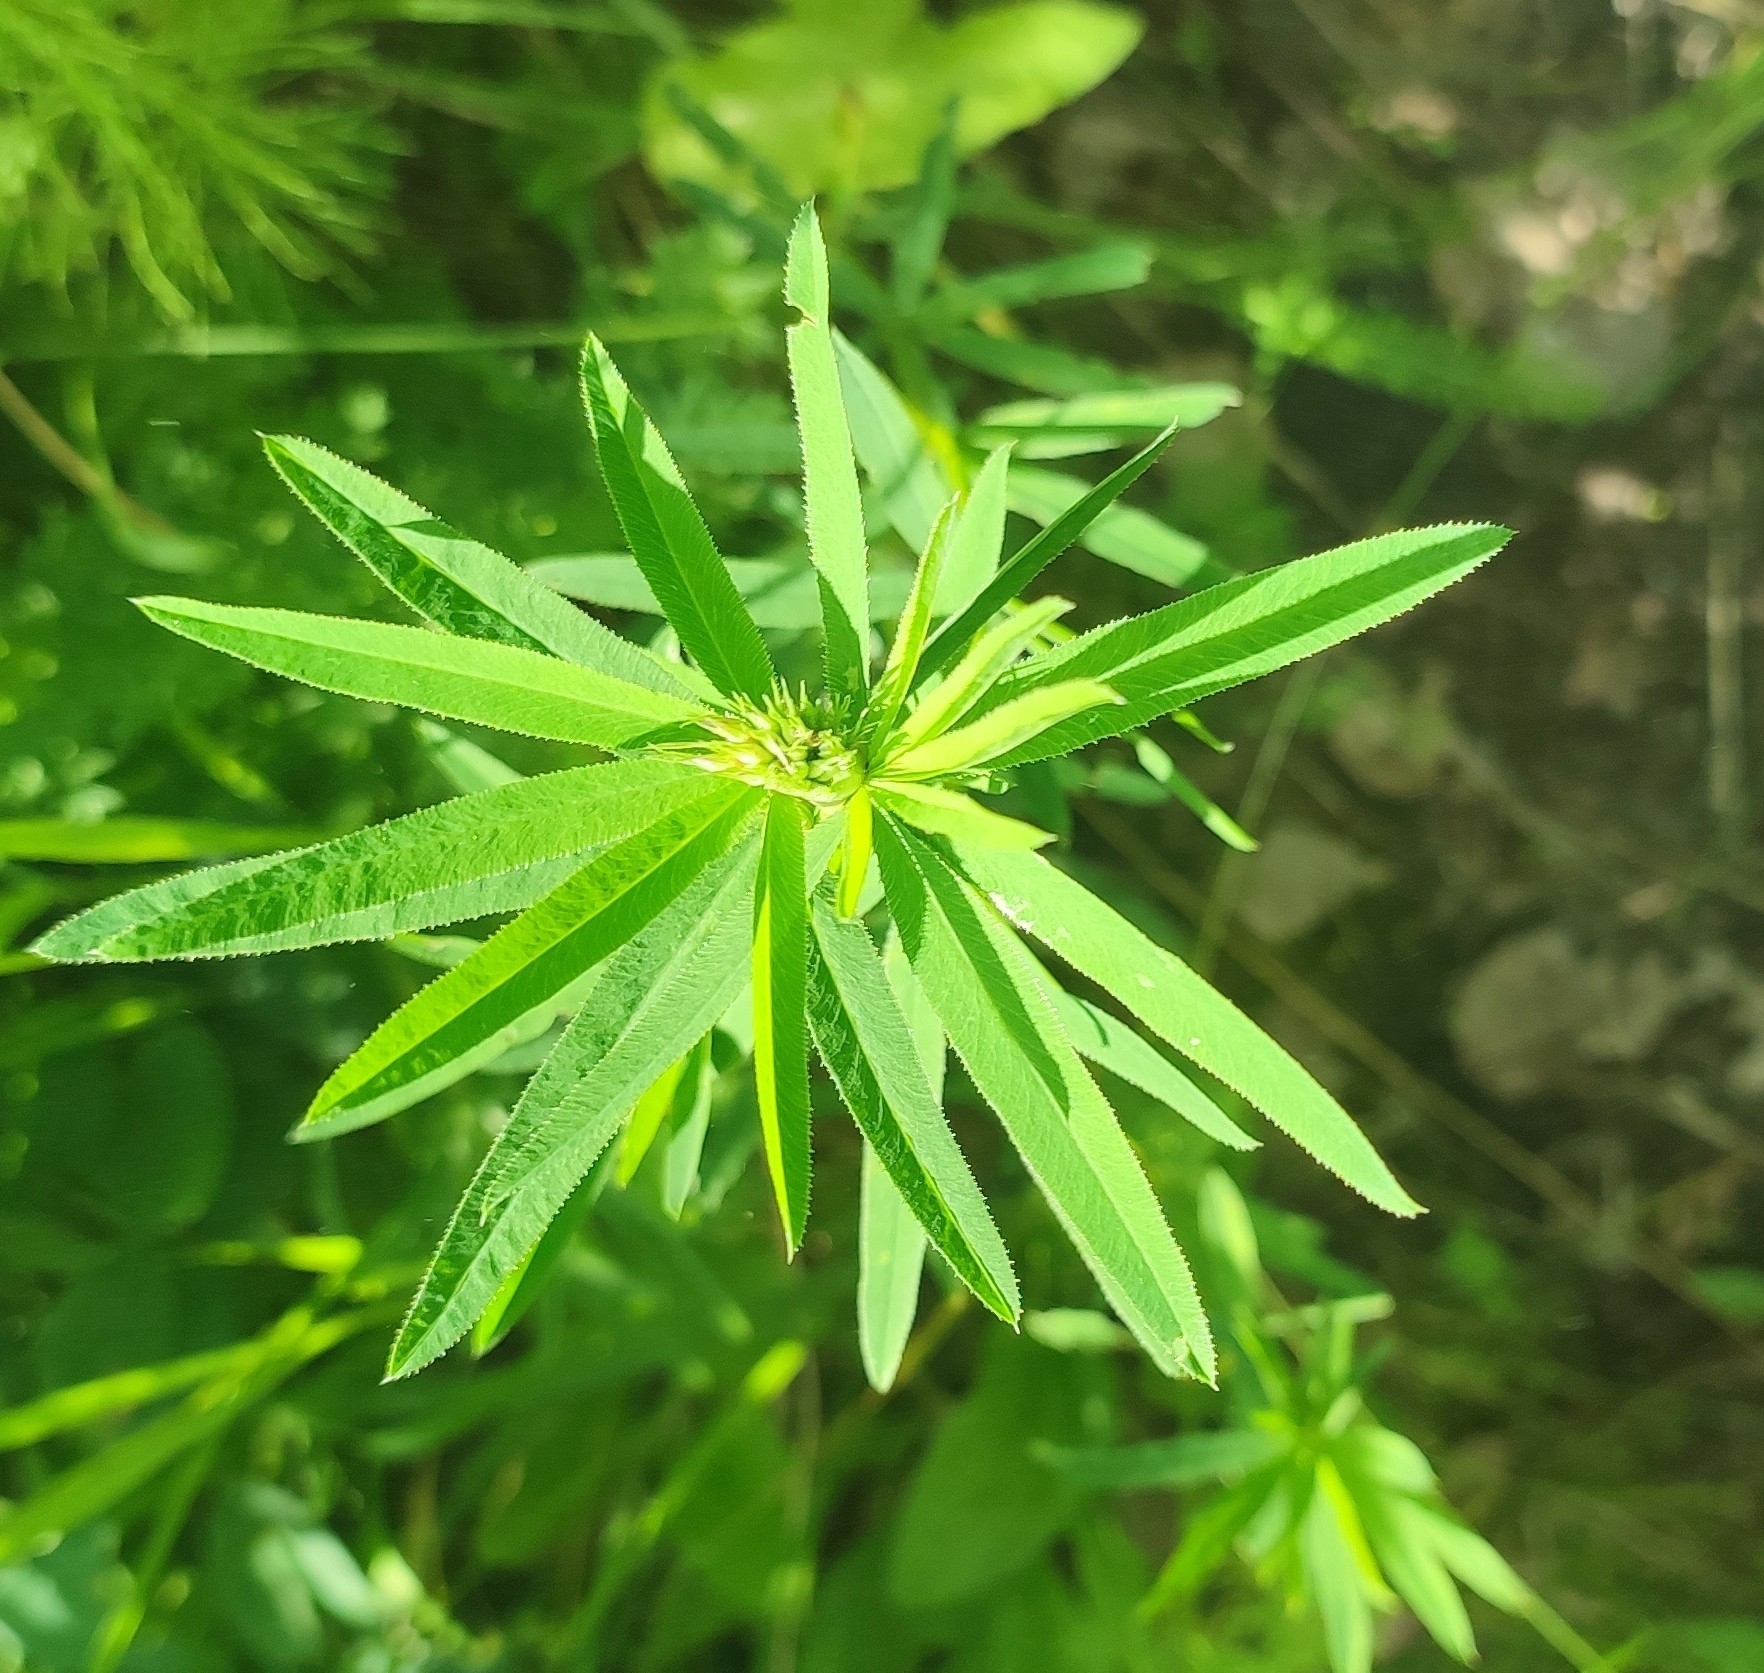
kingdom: Plantae
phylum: Tracheophyta
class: Magnoliopsida
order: Fabales
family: Fabaceae
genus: Trifolium
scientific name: Trifolium lupinaster
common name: Lupine clover
